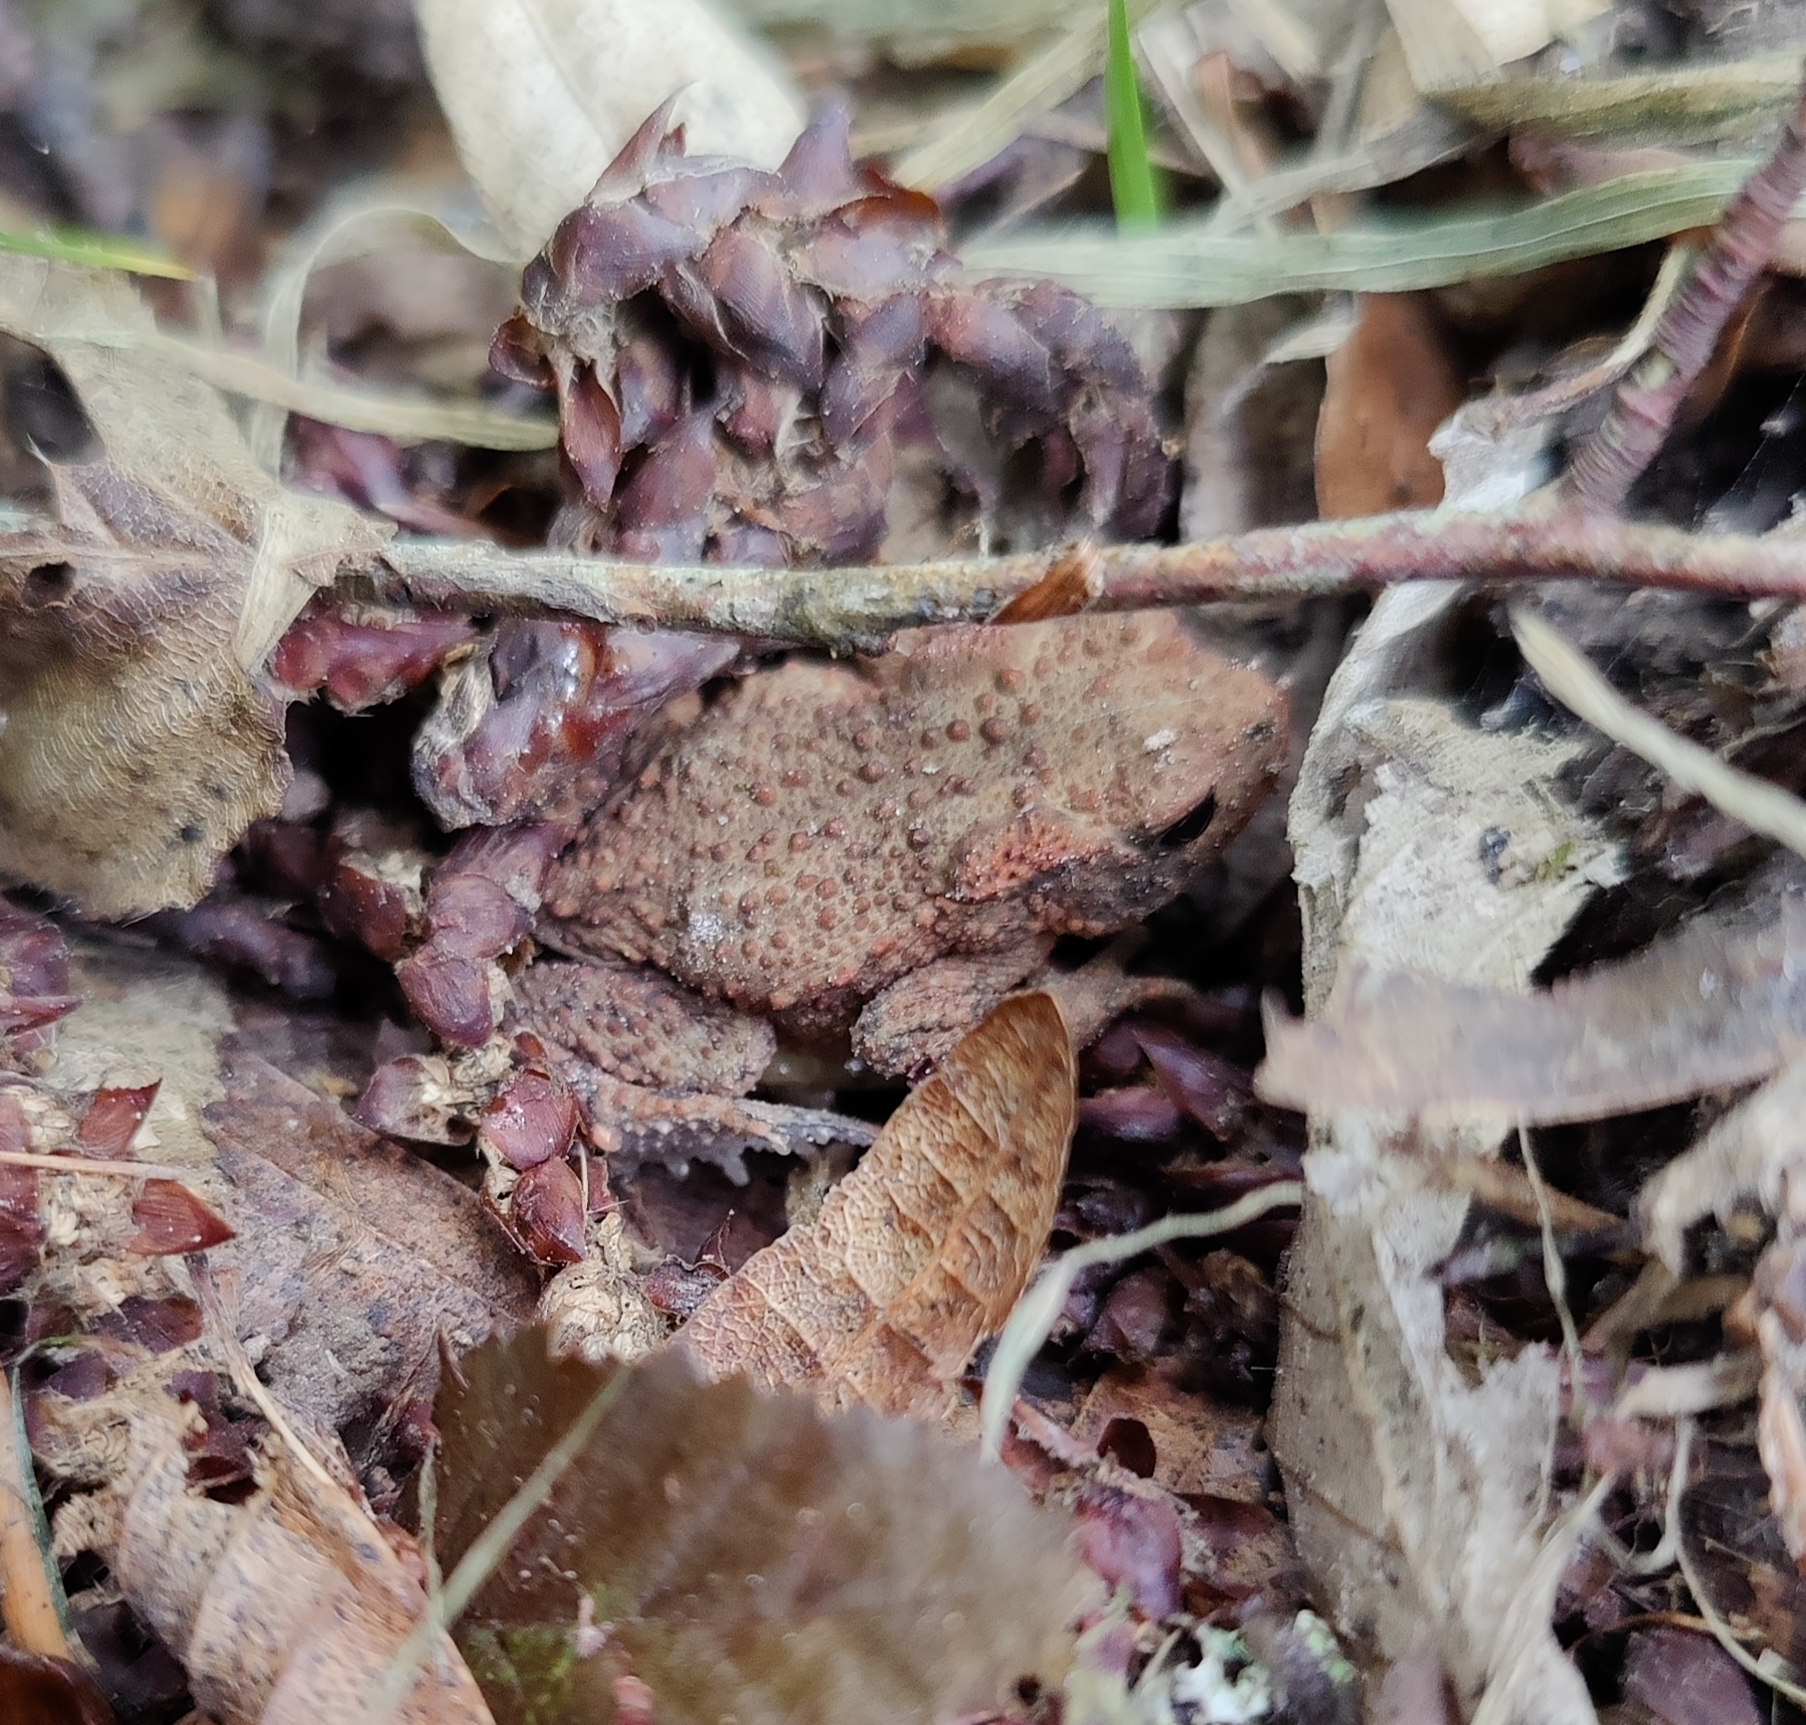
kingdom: Animalia
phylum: Chordata
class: Amphibia
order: Anura
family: Bufonidae
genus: Bufo
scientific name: Bufo bufo
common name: Common toad
